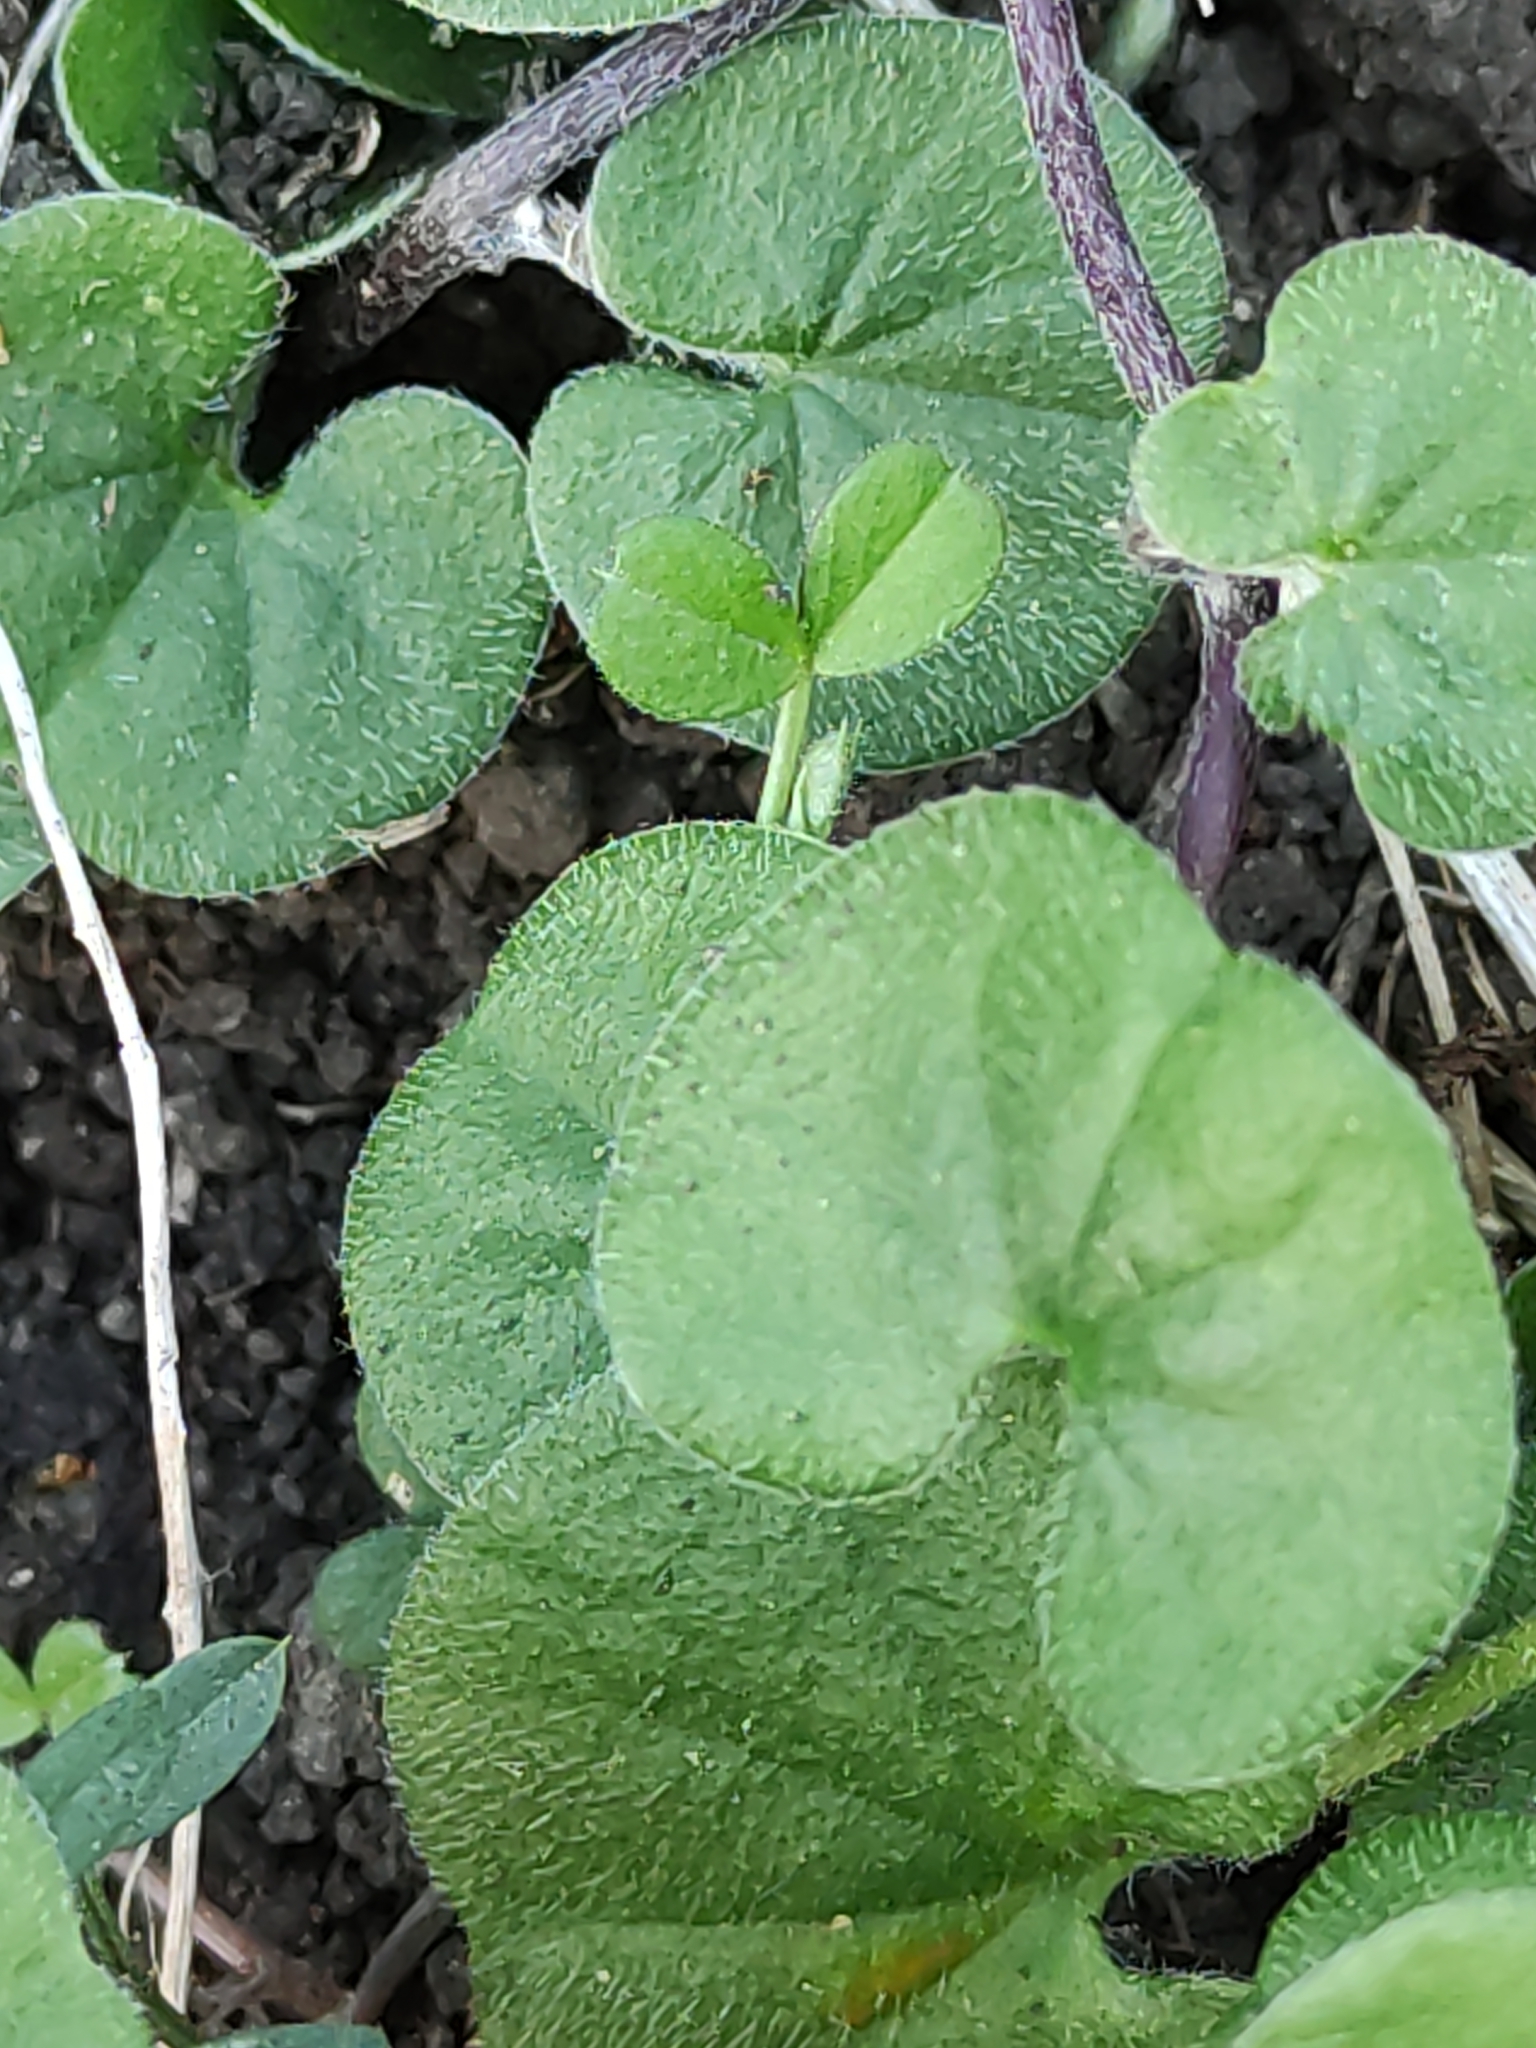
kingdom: Plantae
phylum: Tracheophyta
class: Magnoliopsida
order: Solanales
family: Convolvulaceae
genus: Dichondra
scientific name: Dichondra repens
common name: Kidneyweed
